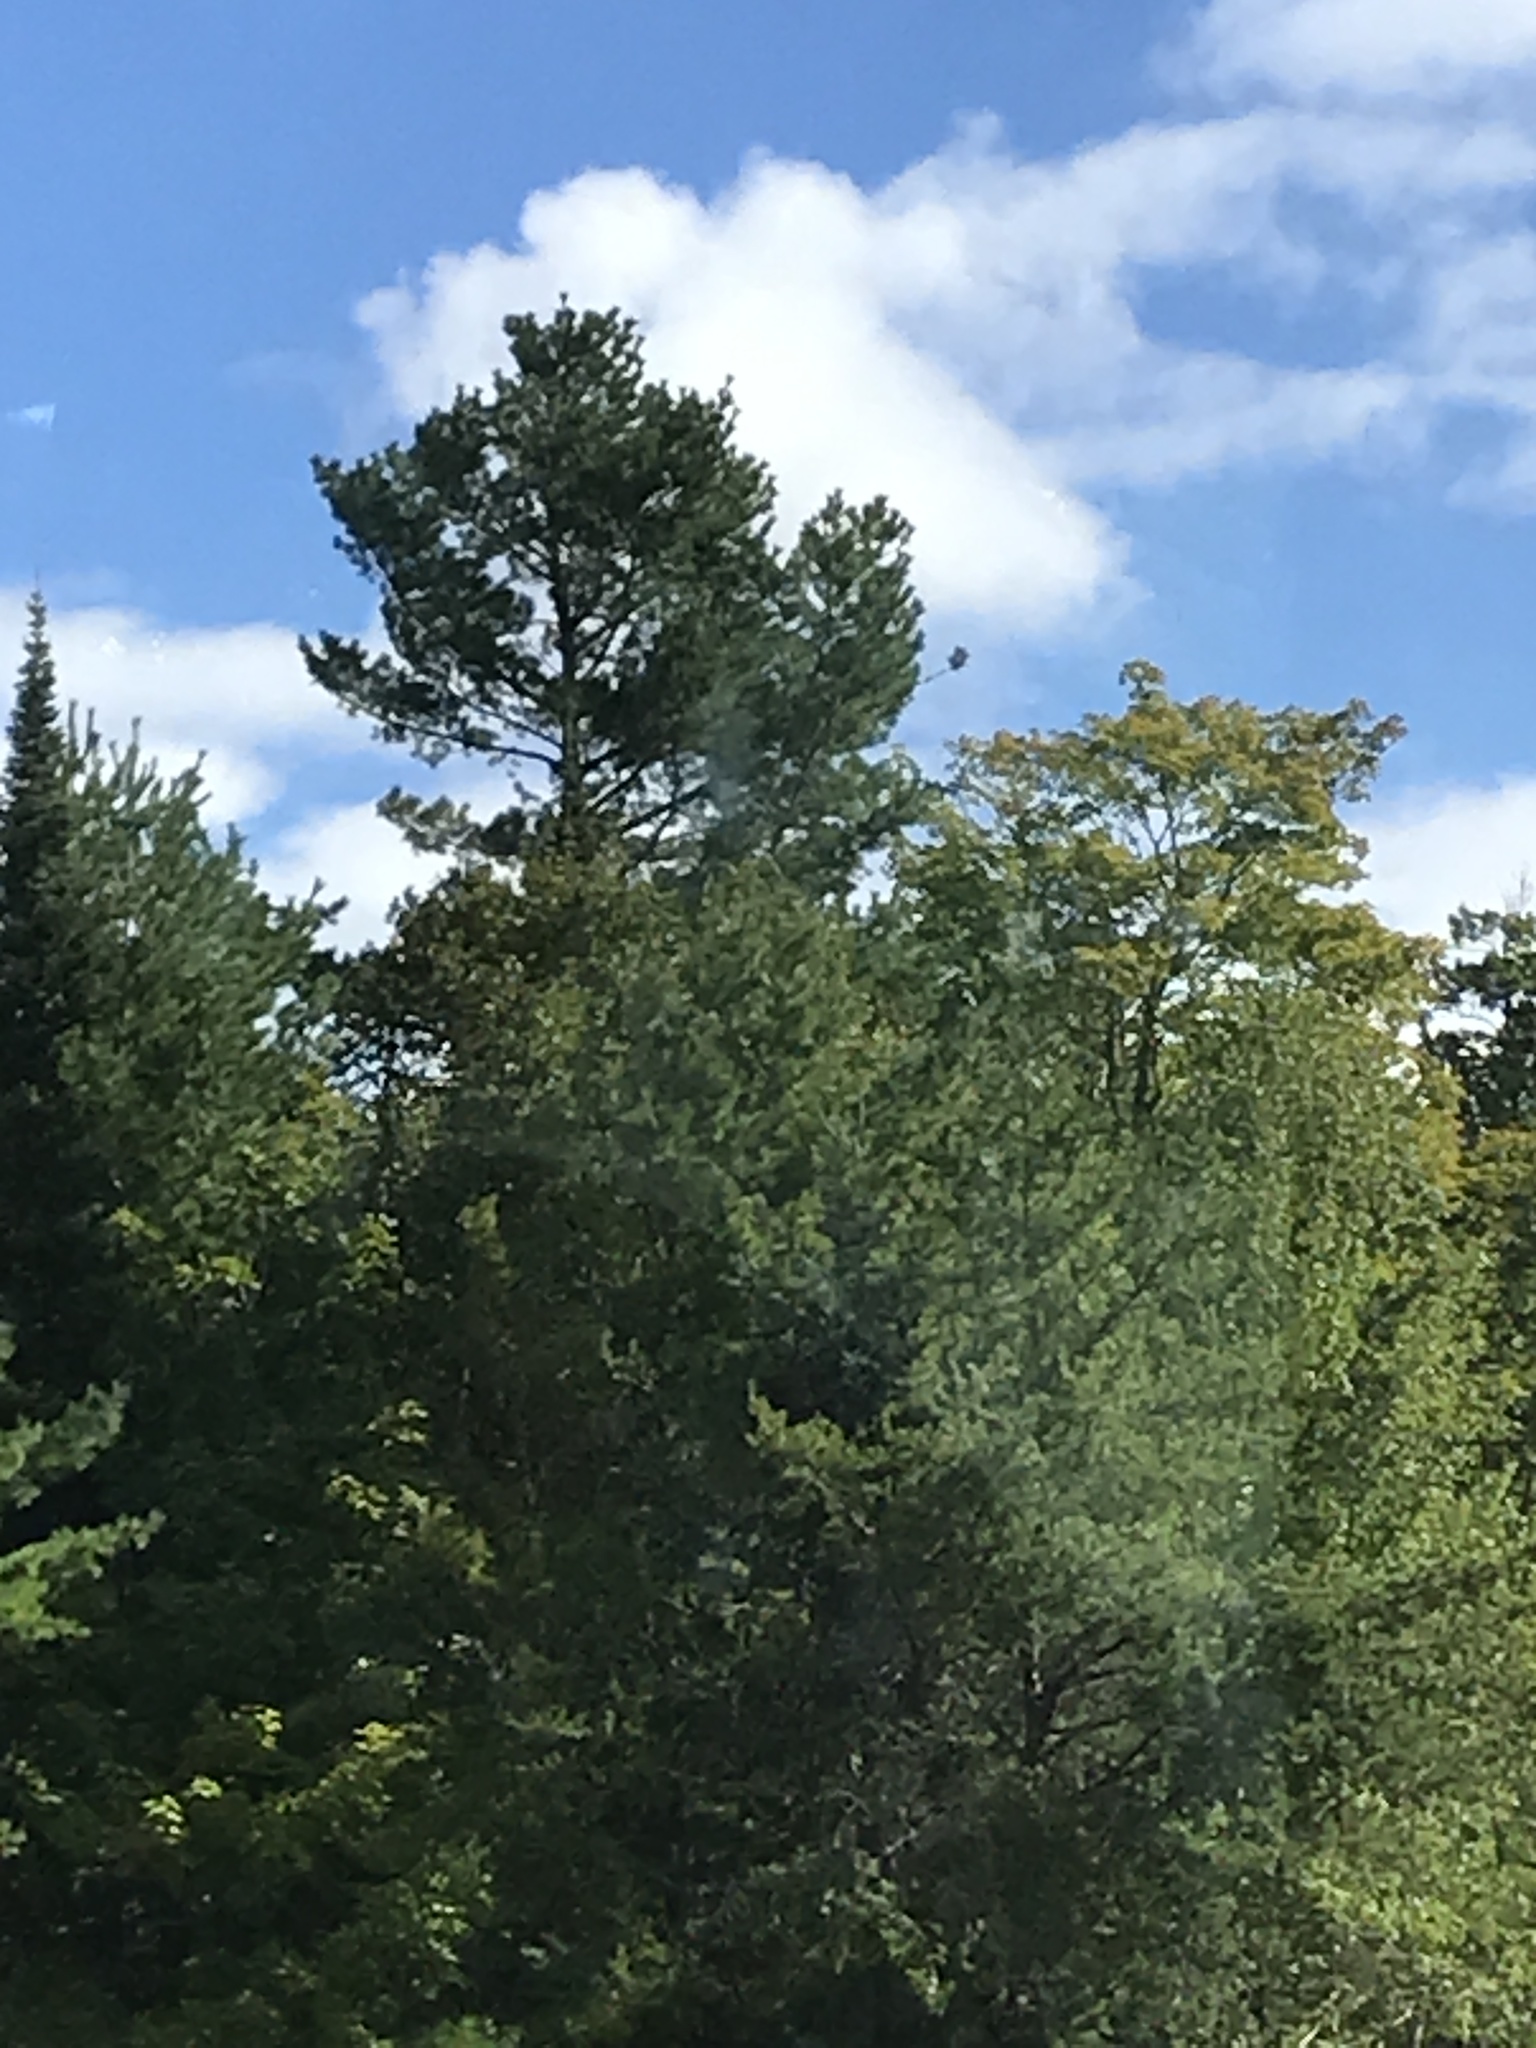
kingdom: Plantae
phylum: Tracheophyta
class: Pinopsida
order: Pinales
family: Pinaceae
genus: Pinus
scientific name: Pinus strobus
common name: Weymouth pine
